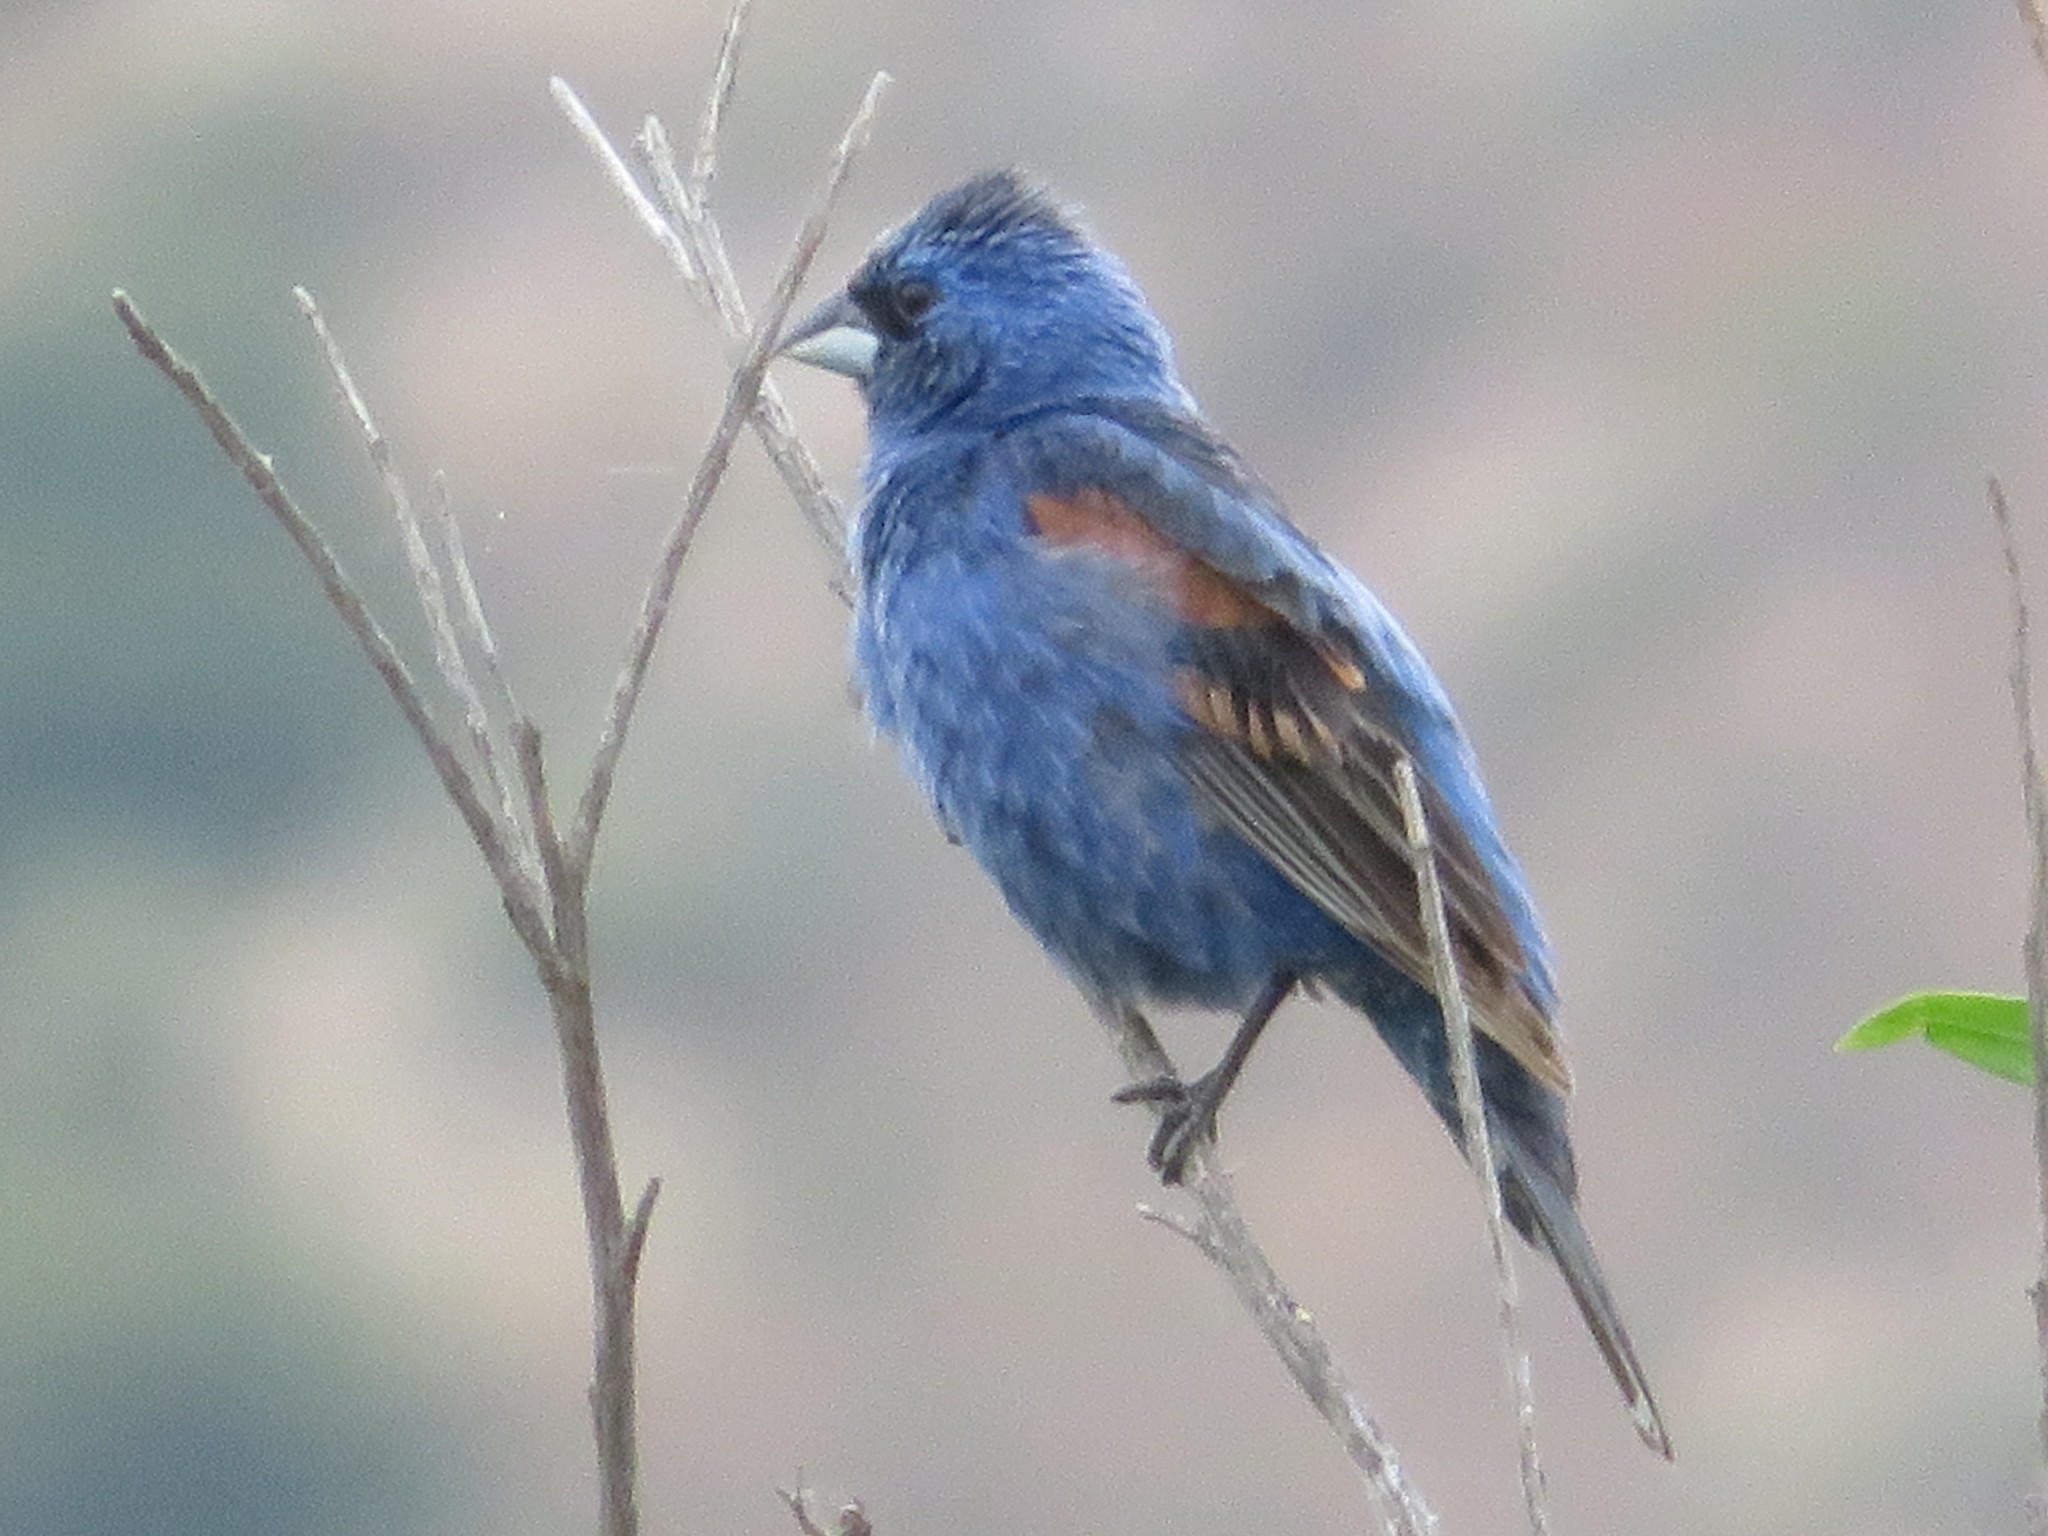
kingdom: Animalia
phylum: Chordata
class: Aves
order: Passeriformes
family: Cardinalidae
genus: Passerina
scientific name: Passerina caerulea
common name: Blue grosbeak
